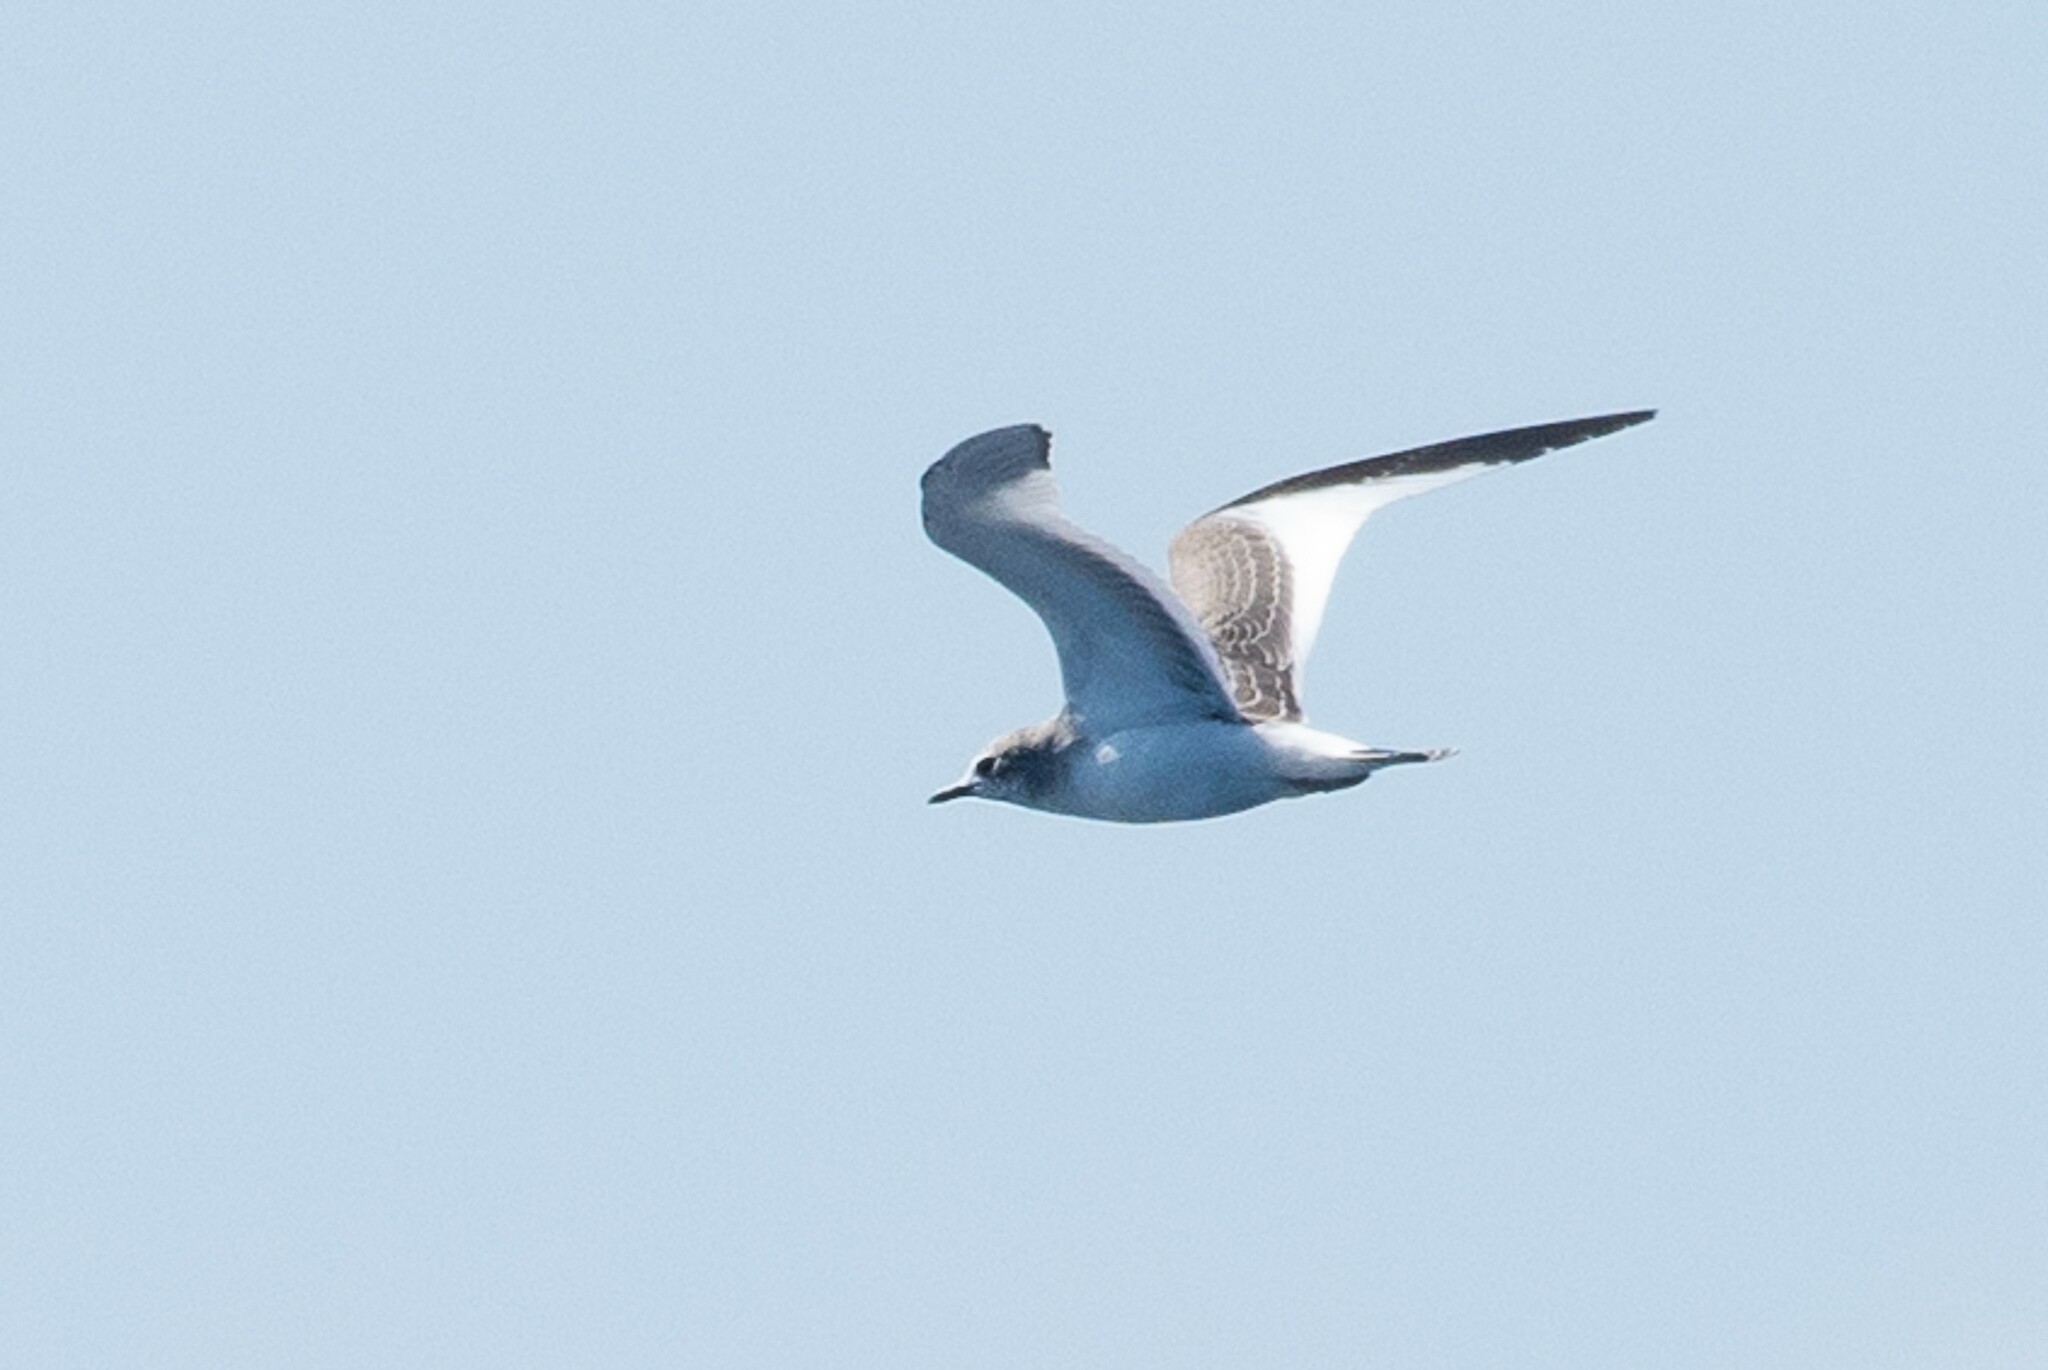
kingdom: Animalia
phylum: Chordata
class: Aves
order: Charadriiformes
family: Laridae
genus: Xema
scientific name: Xema sabini
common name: Sabine's gull
